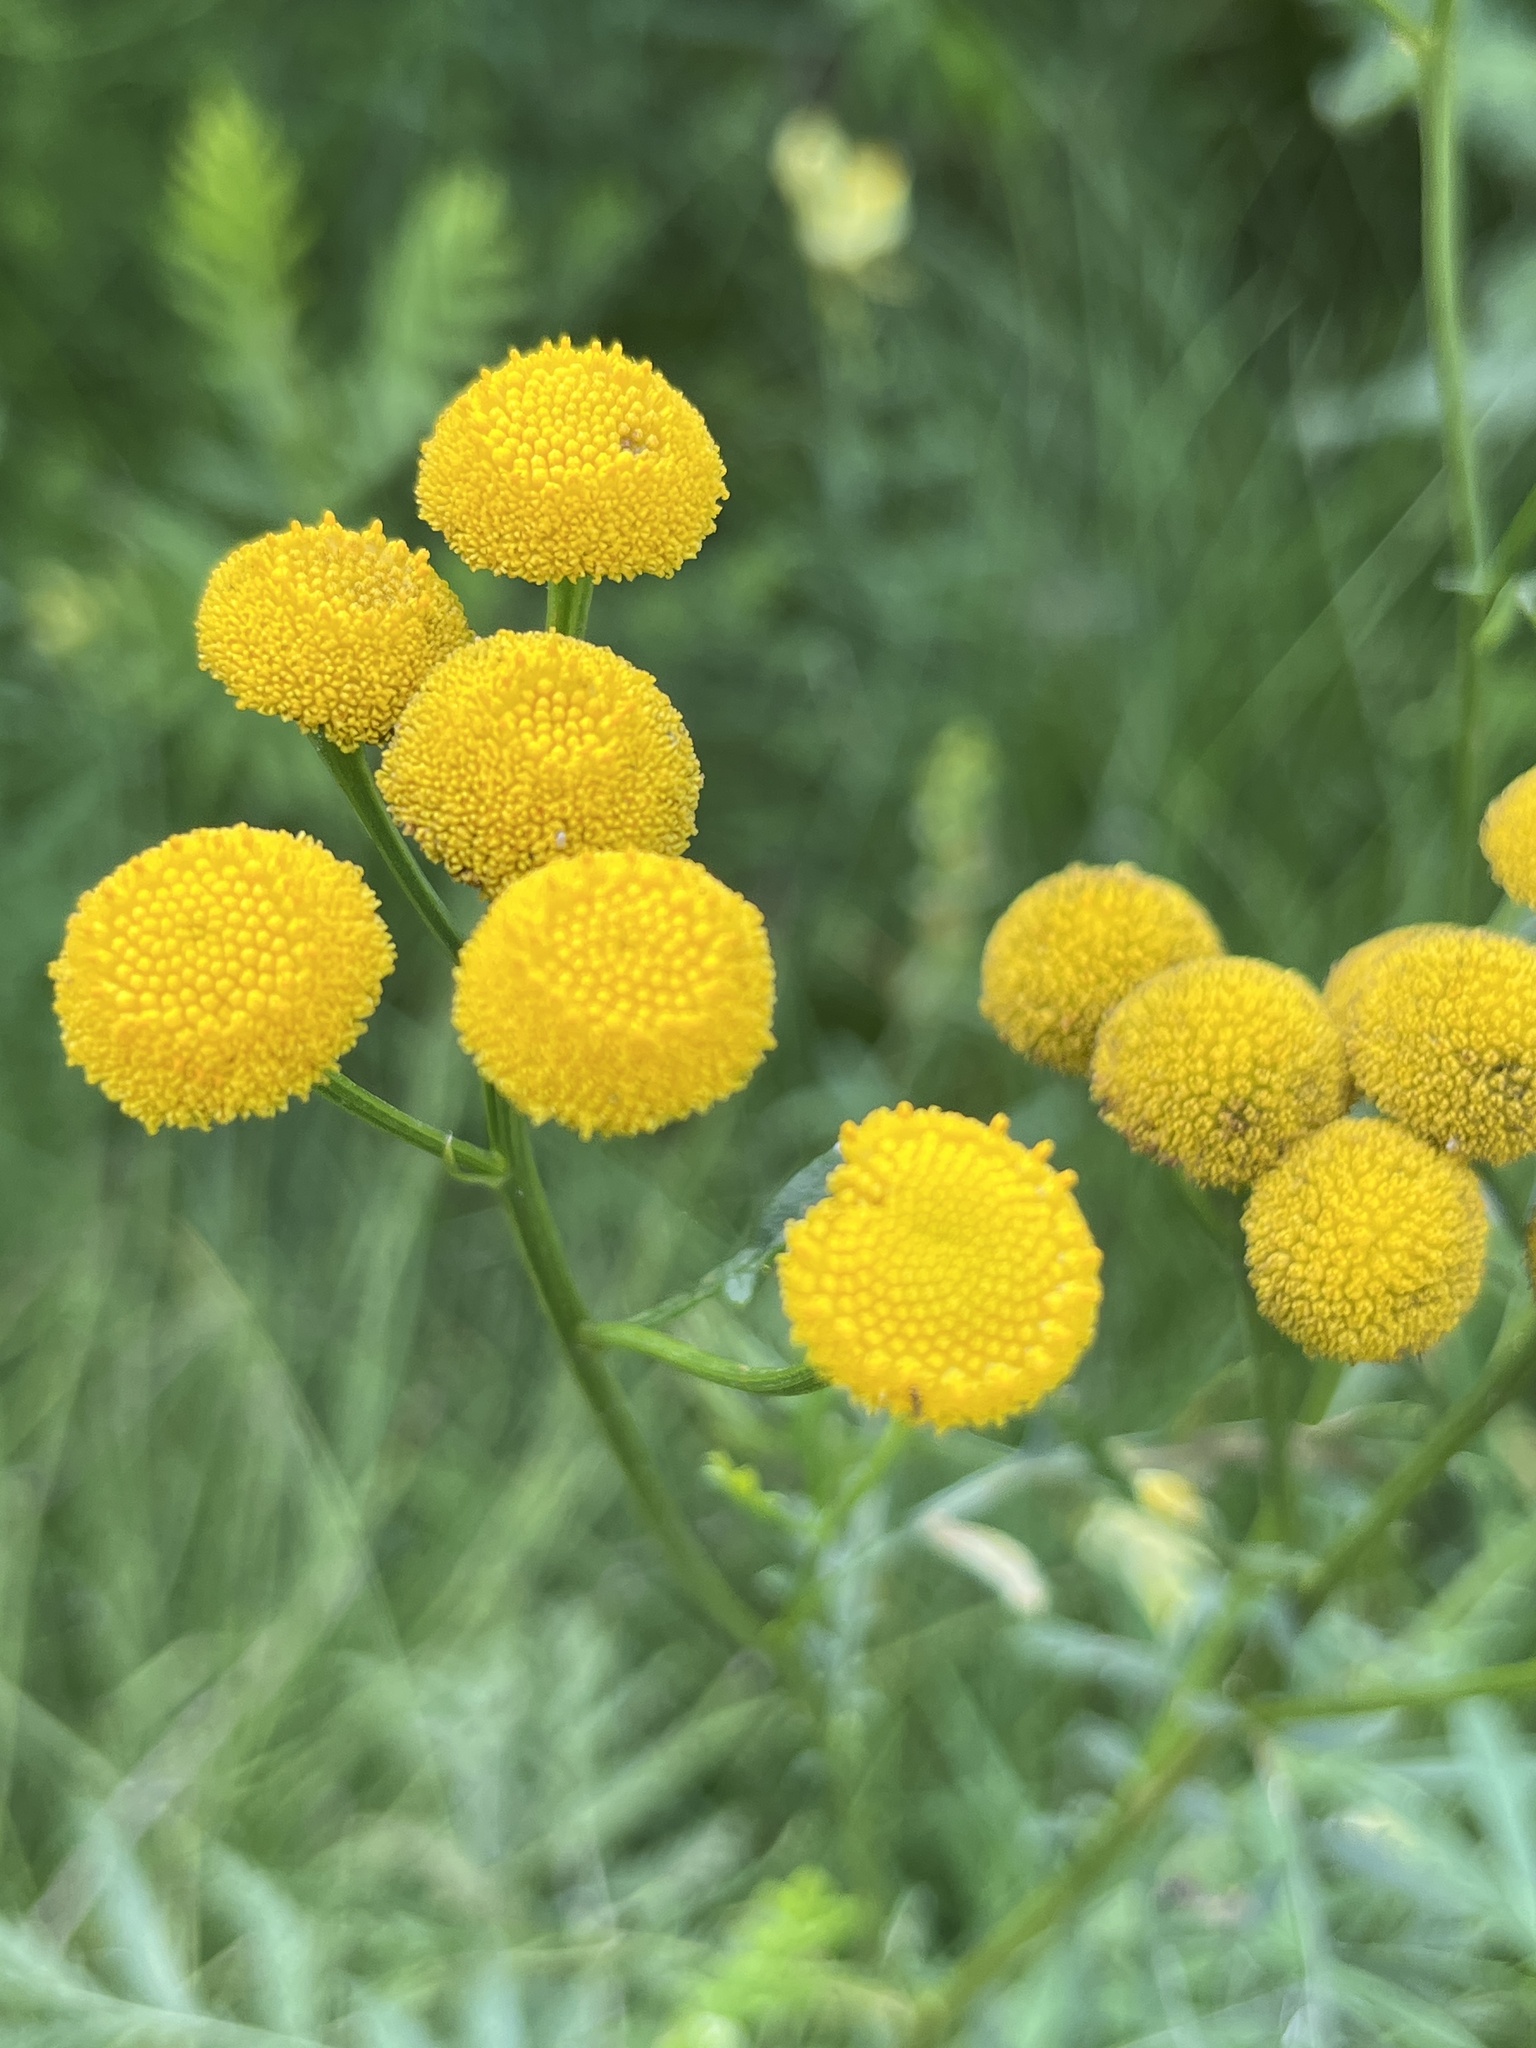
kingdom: Plantae
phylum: Tracheophyta
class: Magnoliopsida
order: Asterales
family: Asteraceae
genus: Tanacetum
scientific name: Tanacetum vulgare
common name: Common tansy
